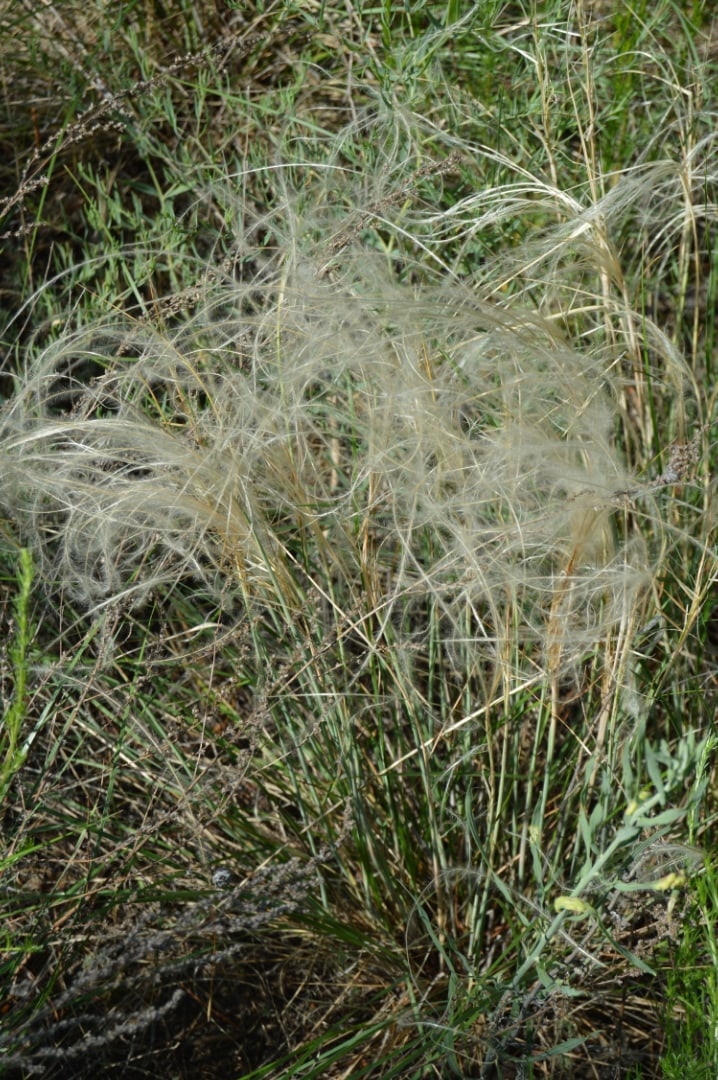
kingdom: Plantae
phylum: Tracheophyta
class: Liliopsida
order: Poales
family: Poaceae
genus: Stipa
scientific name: Stipa lessingiana
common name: Needle grass
